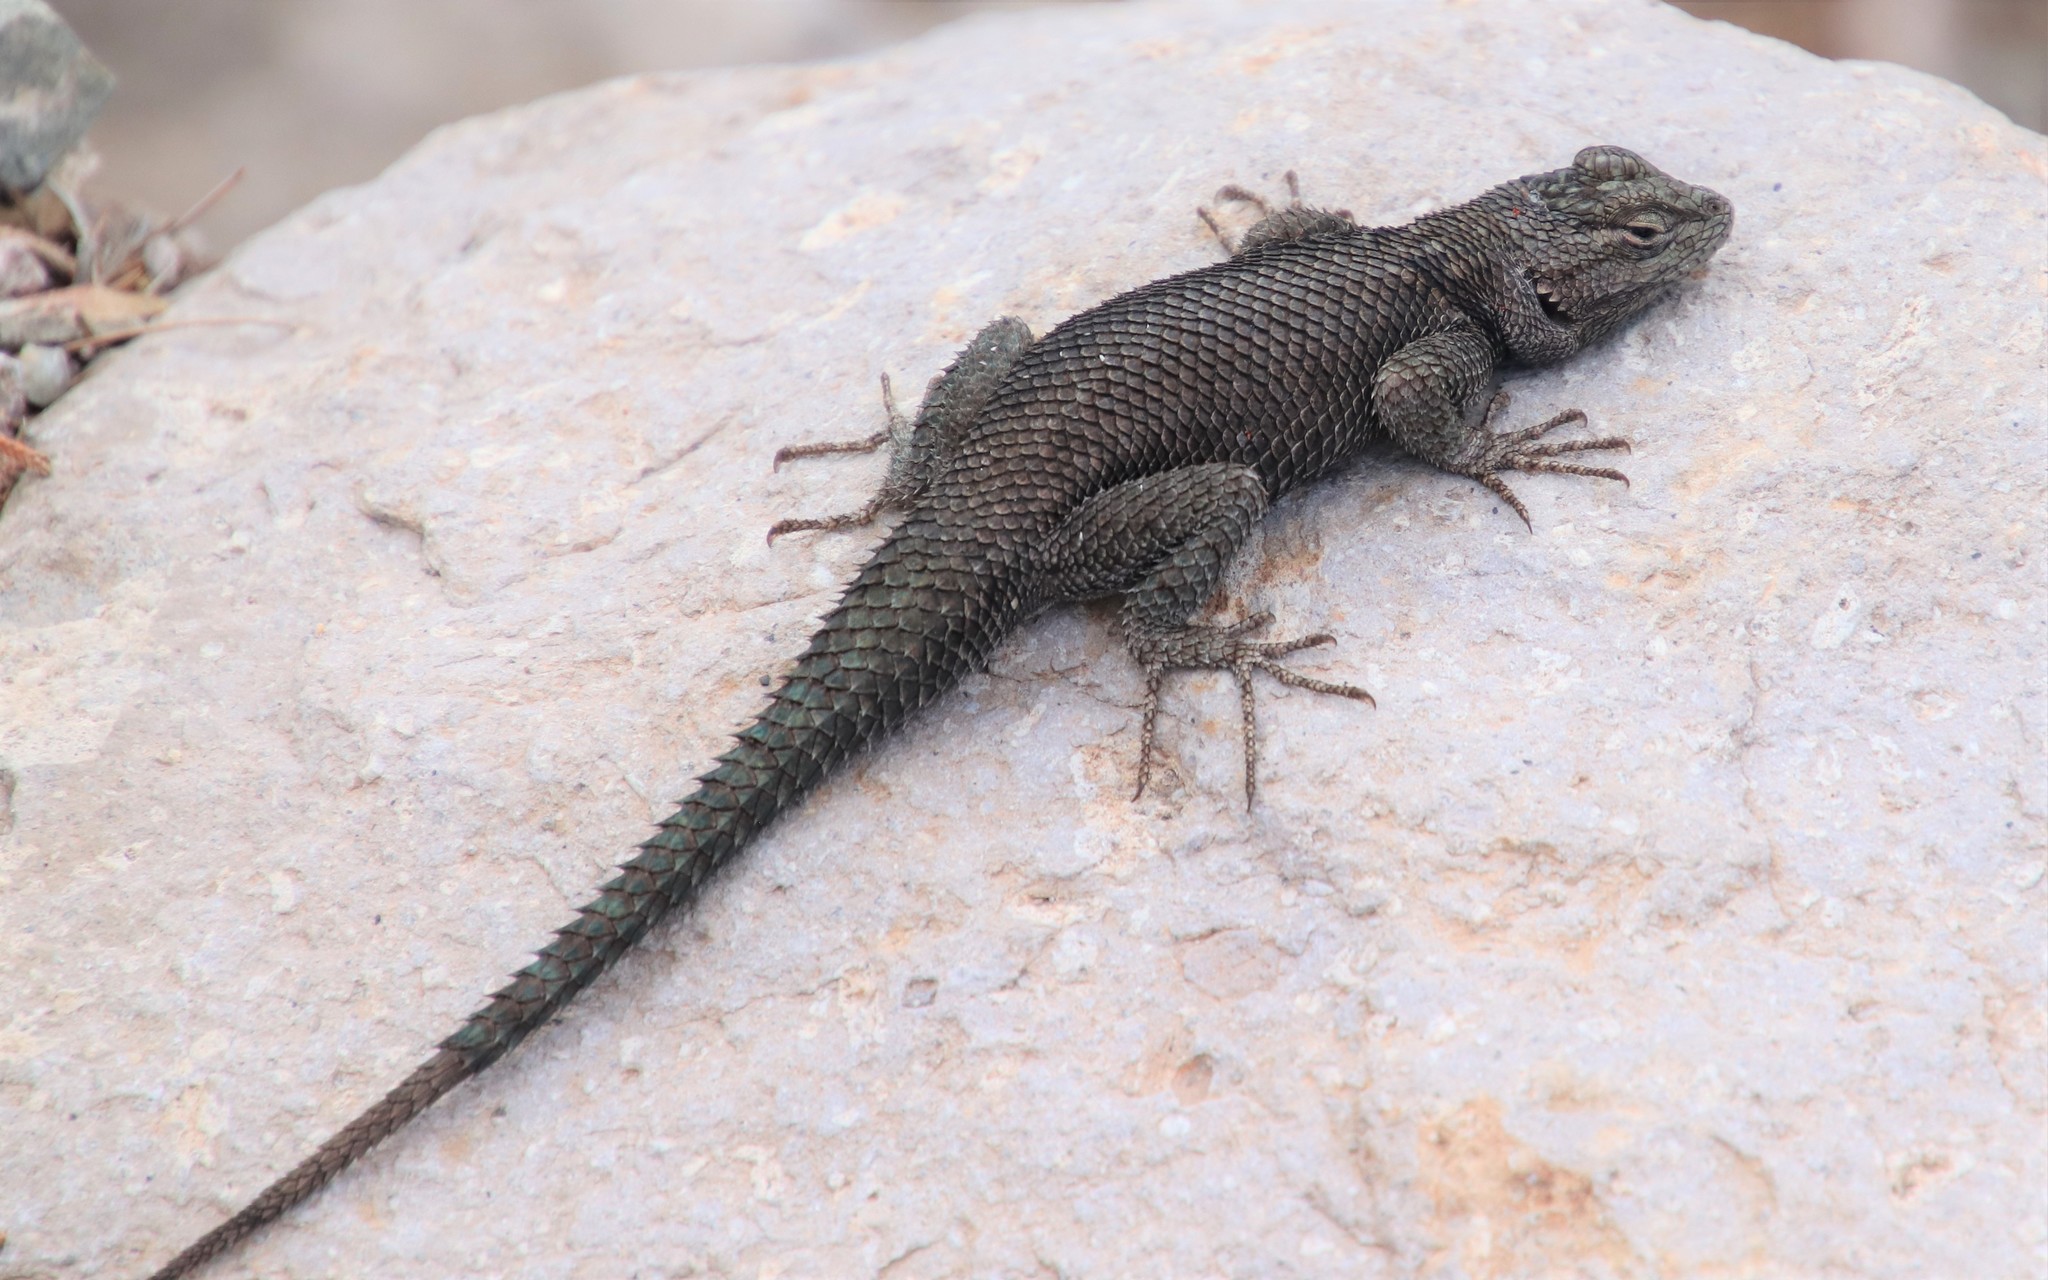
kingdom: Animalia
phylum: Chordata
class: Squamata
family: Phrynosomatidae
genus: Sceloporus
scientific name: Sceloporus jarrovii
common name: Yarrow's spiny lizard
